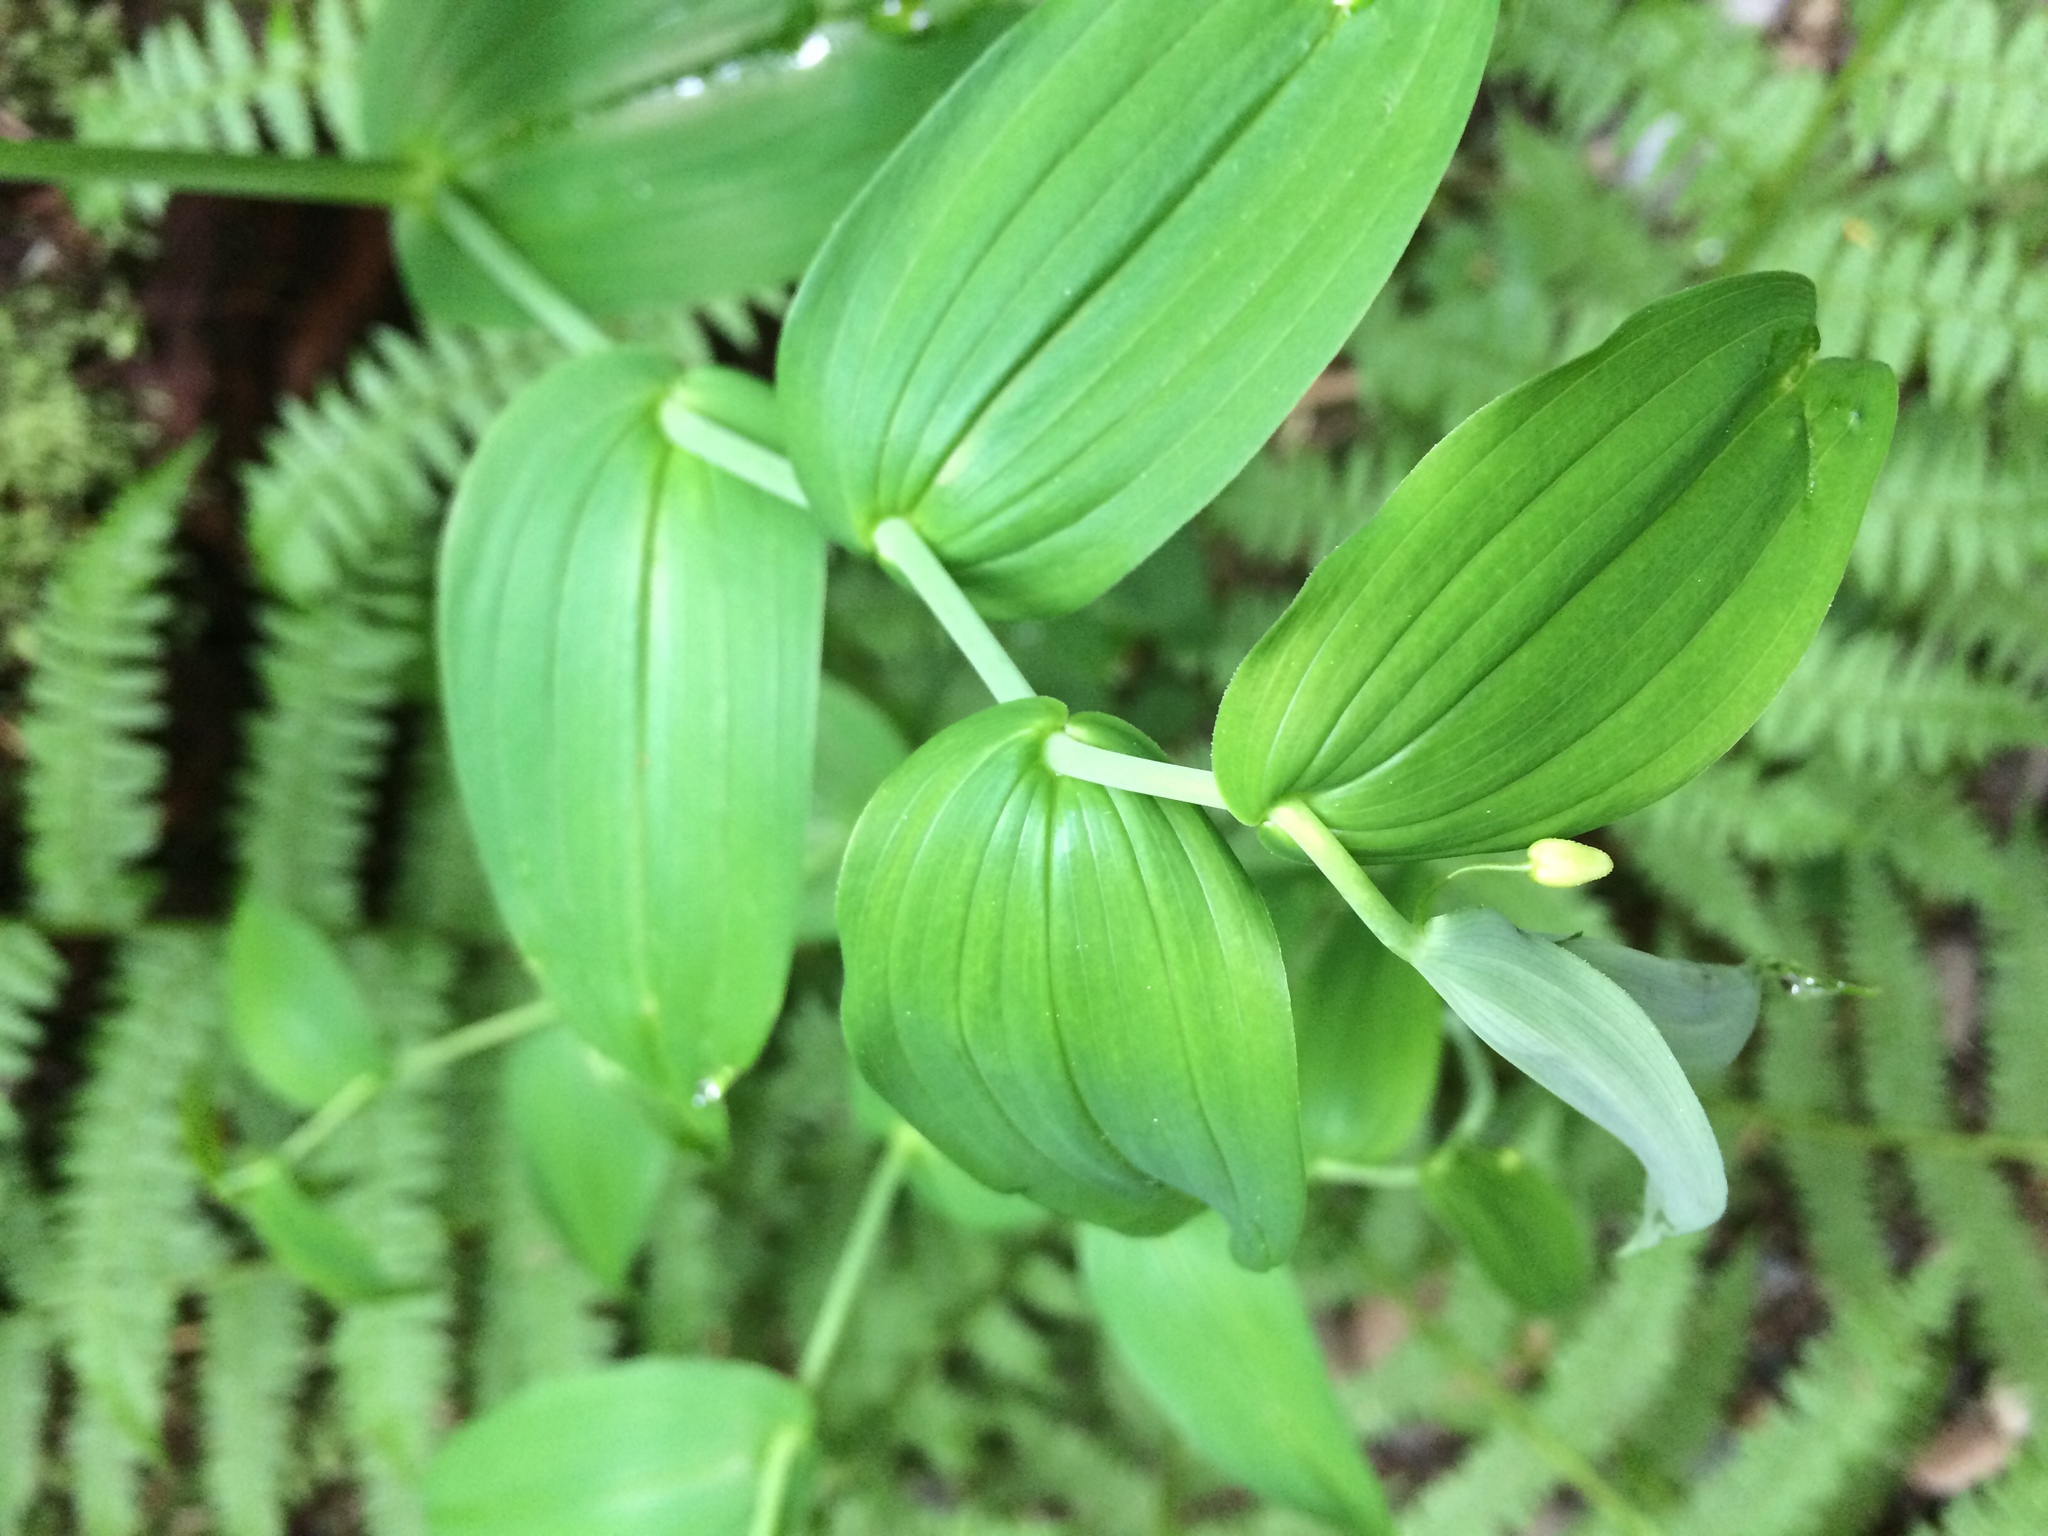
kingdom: Plantae
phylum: Tracheophyta
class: Liliopsida
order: Liliales
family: Liliaceae
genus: Streptopus
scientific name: Streptopus amplexifolius
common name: Clasp twisted stalk
